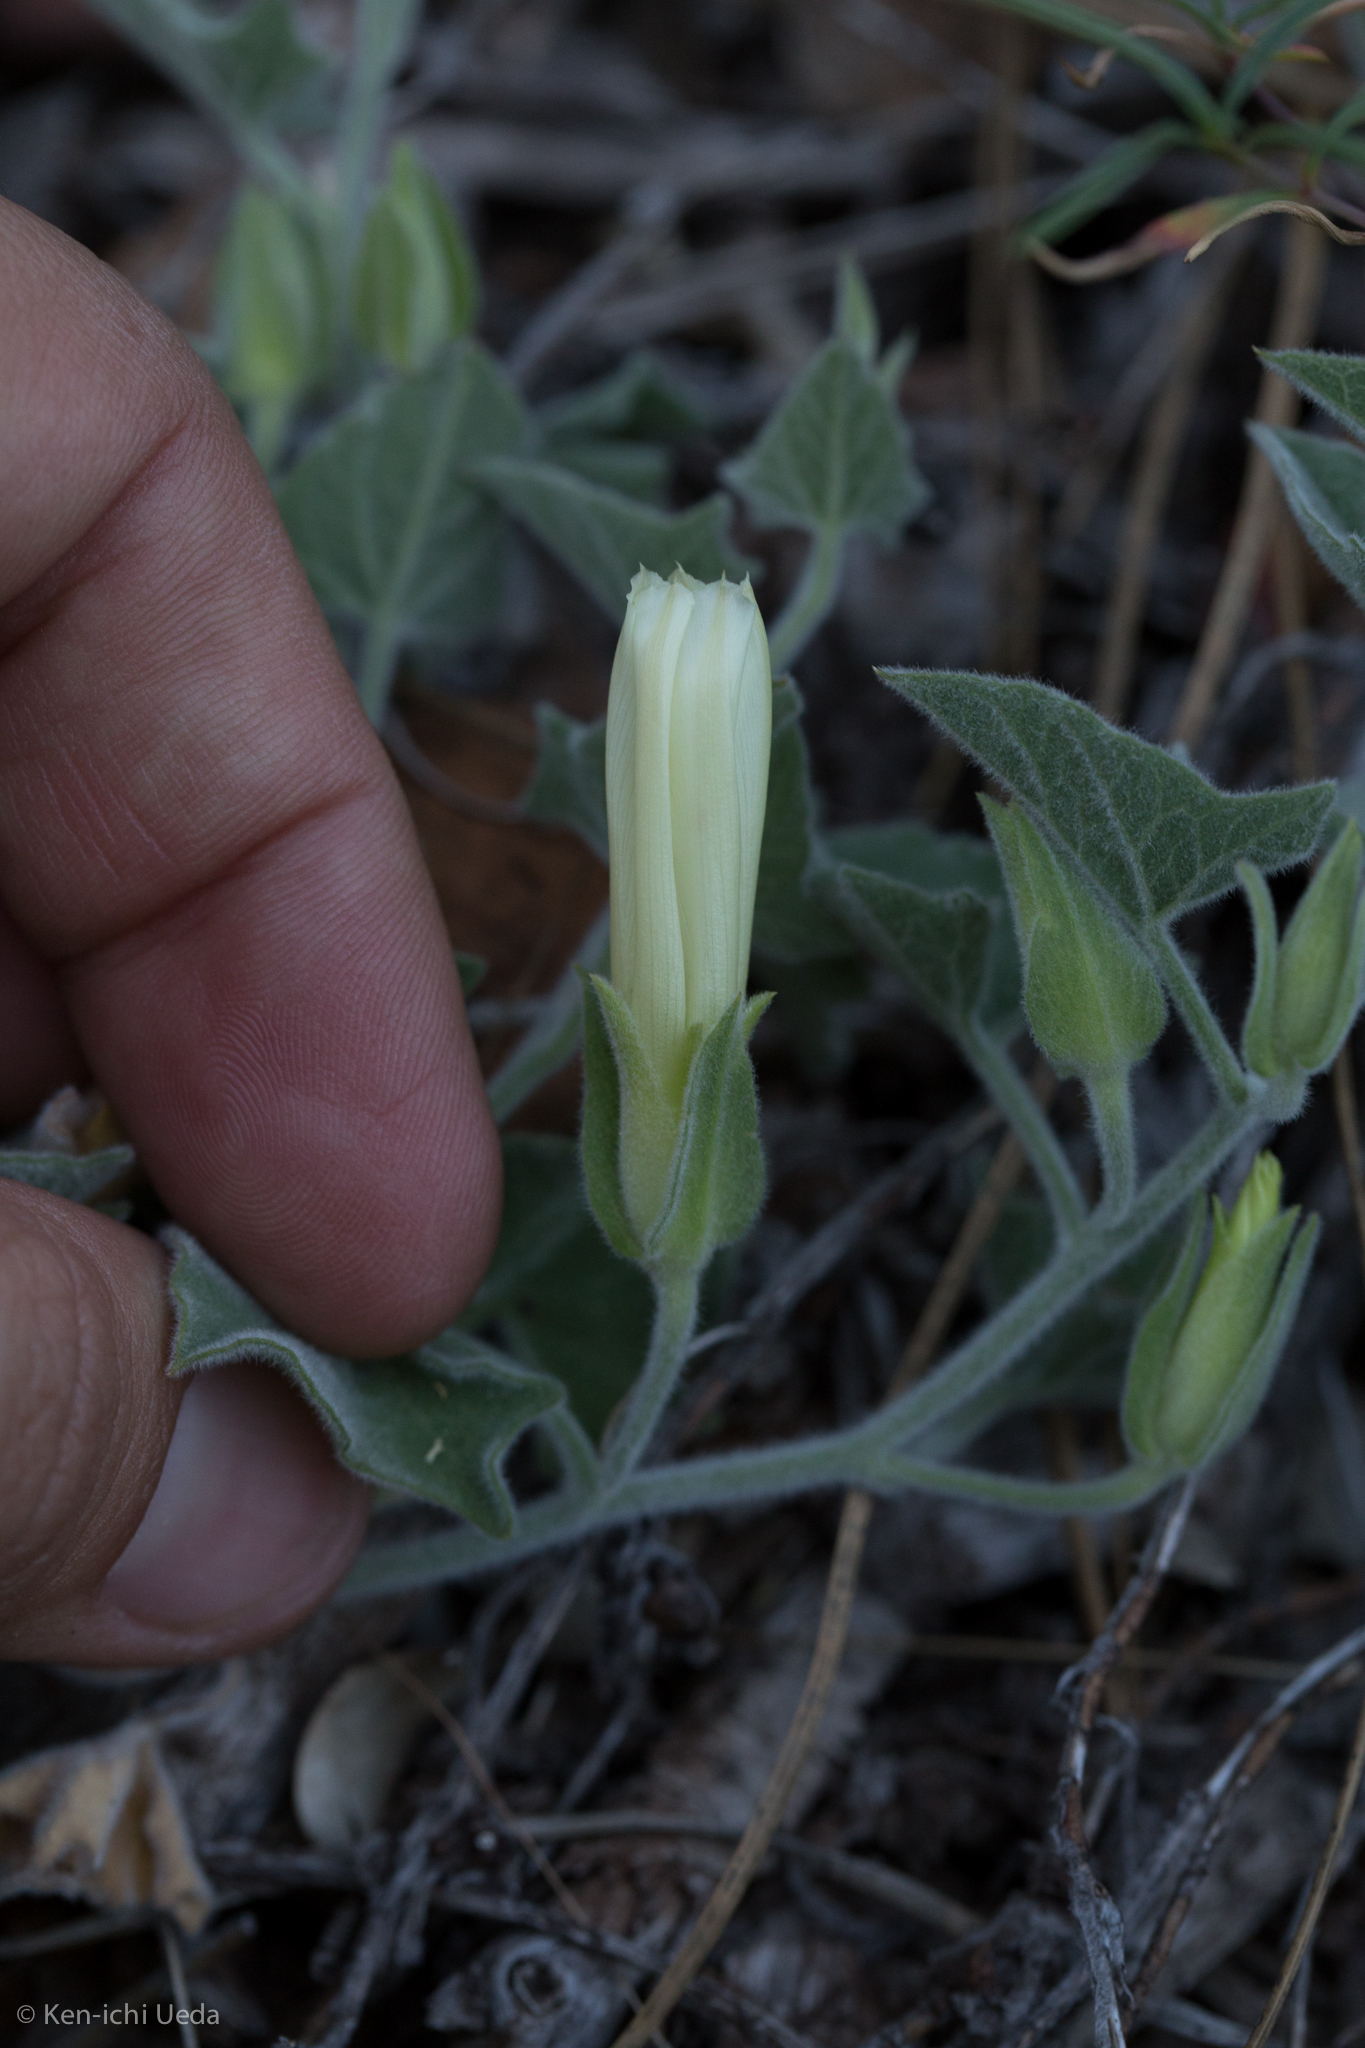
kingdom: Plantae
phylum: Tracheophyta
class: Magnoliopsida
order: Solanales
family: Convolvulaceae
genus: Calystegia
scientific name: Calystegia malacophylla
